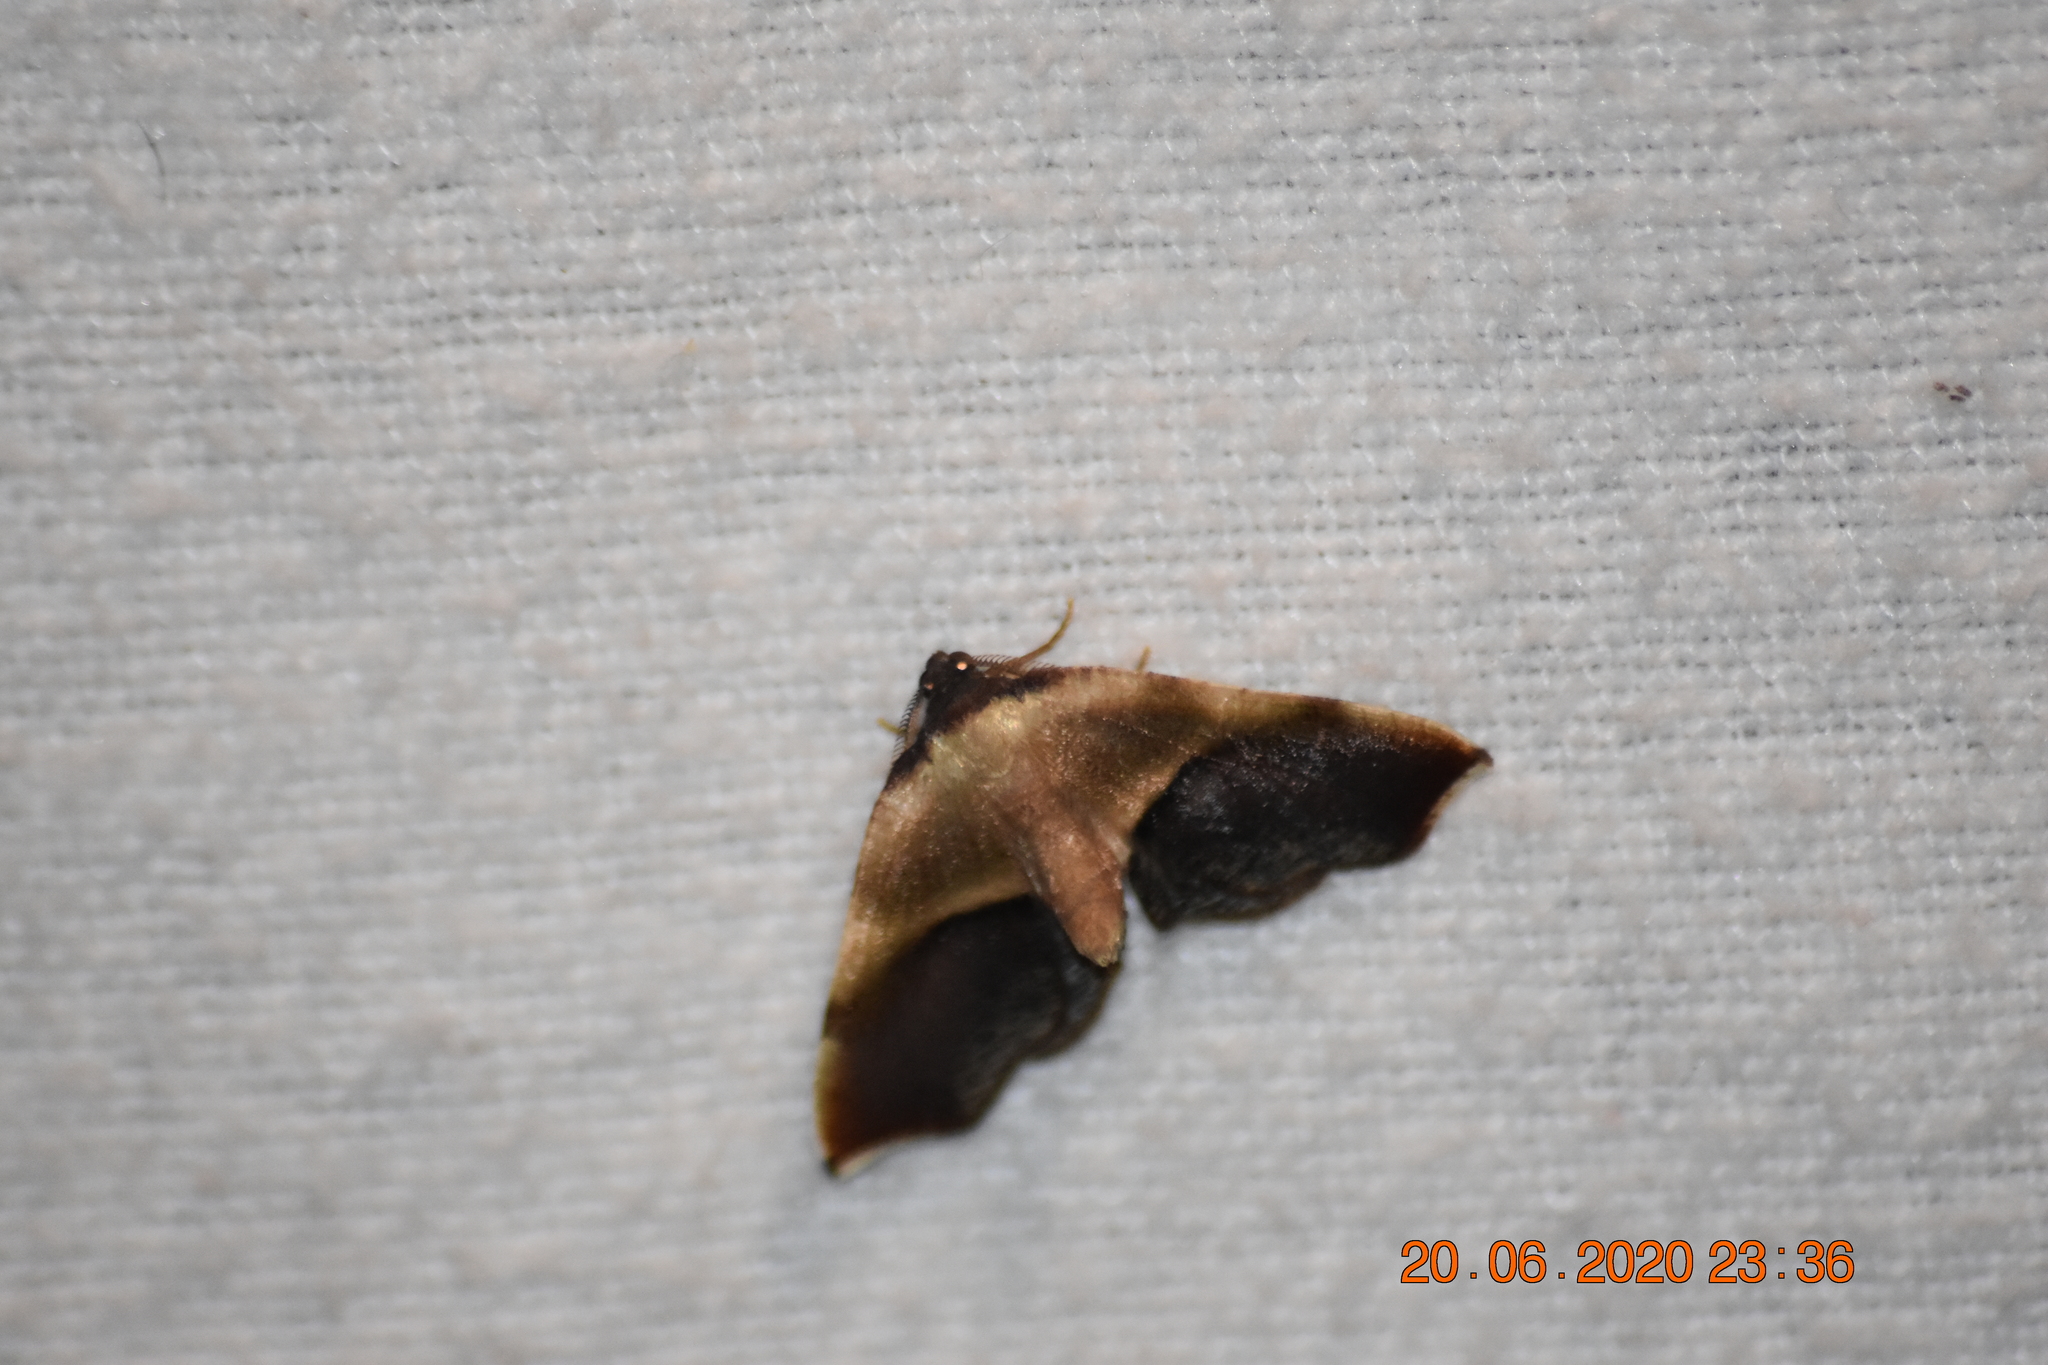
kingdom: Animalia
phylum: Arthropoda
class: Insecta
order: Lepidoptera
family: Geometridae
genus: Plagodis
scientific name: Plagodis kuetzingi
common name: Purple plagodis
